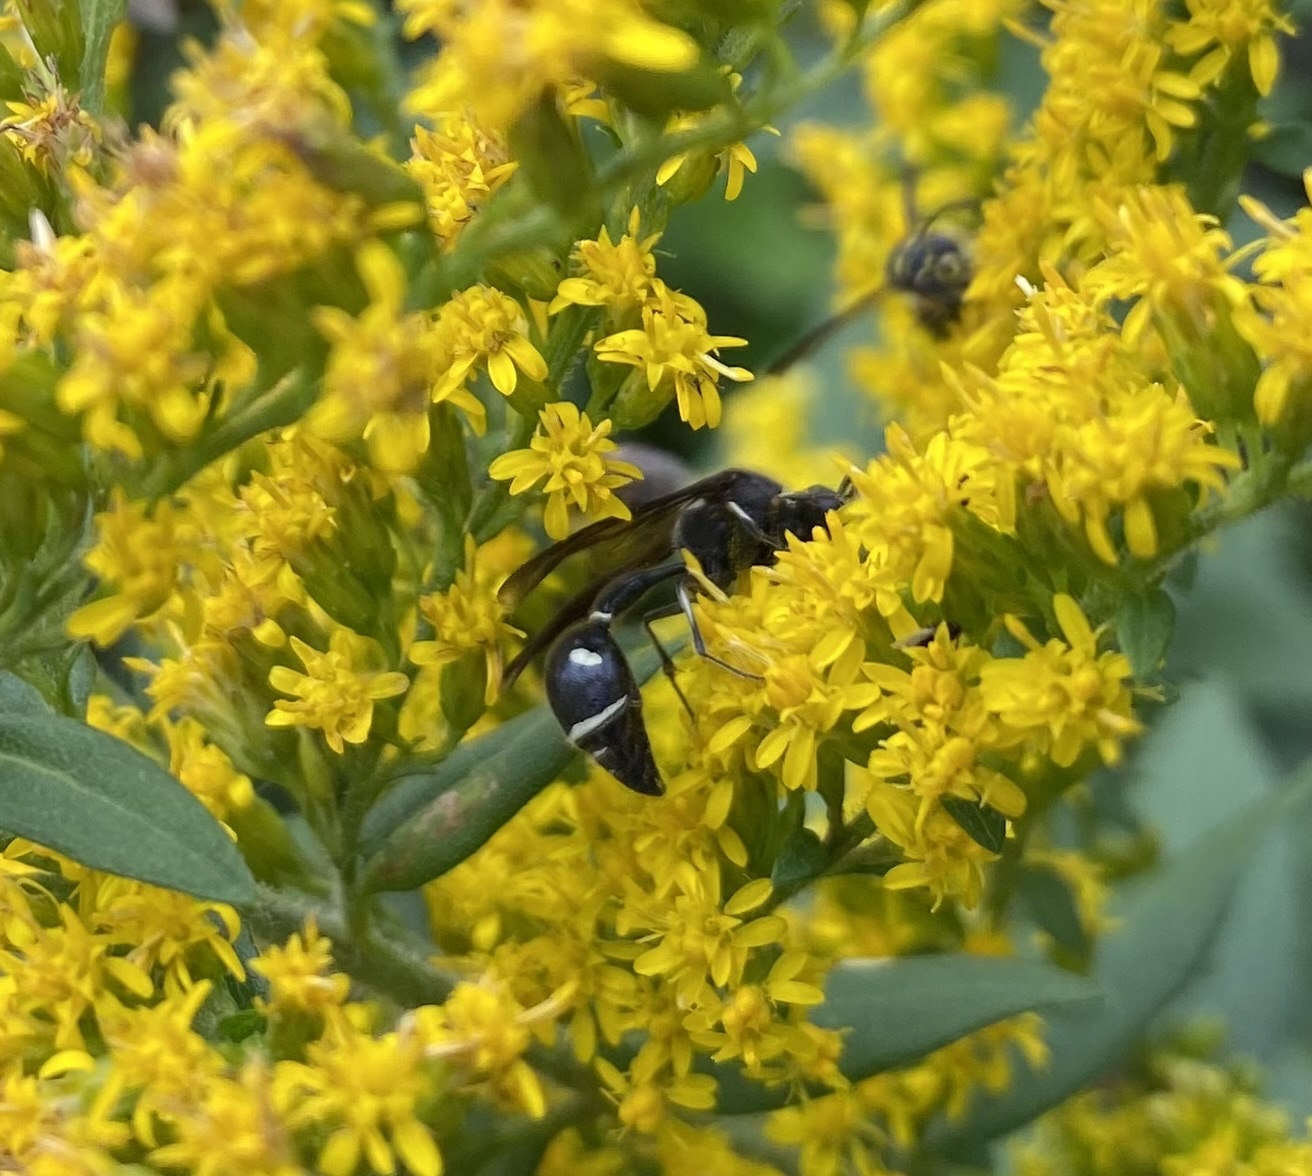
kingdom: Animalia
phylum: Arthropoda
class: Insecta
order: Hymenoptera
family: Vespidae
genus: Eumenes
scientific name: Eumenes fraternus
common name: Fraternal potter wasp
